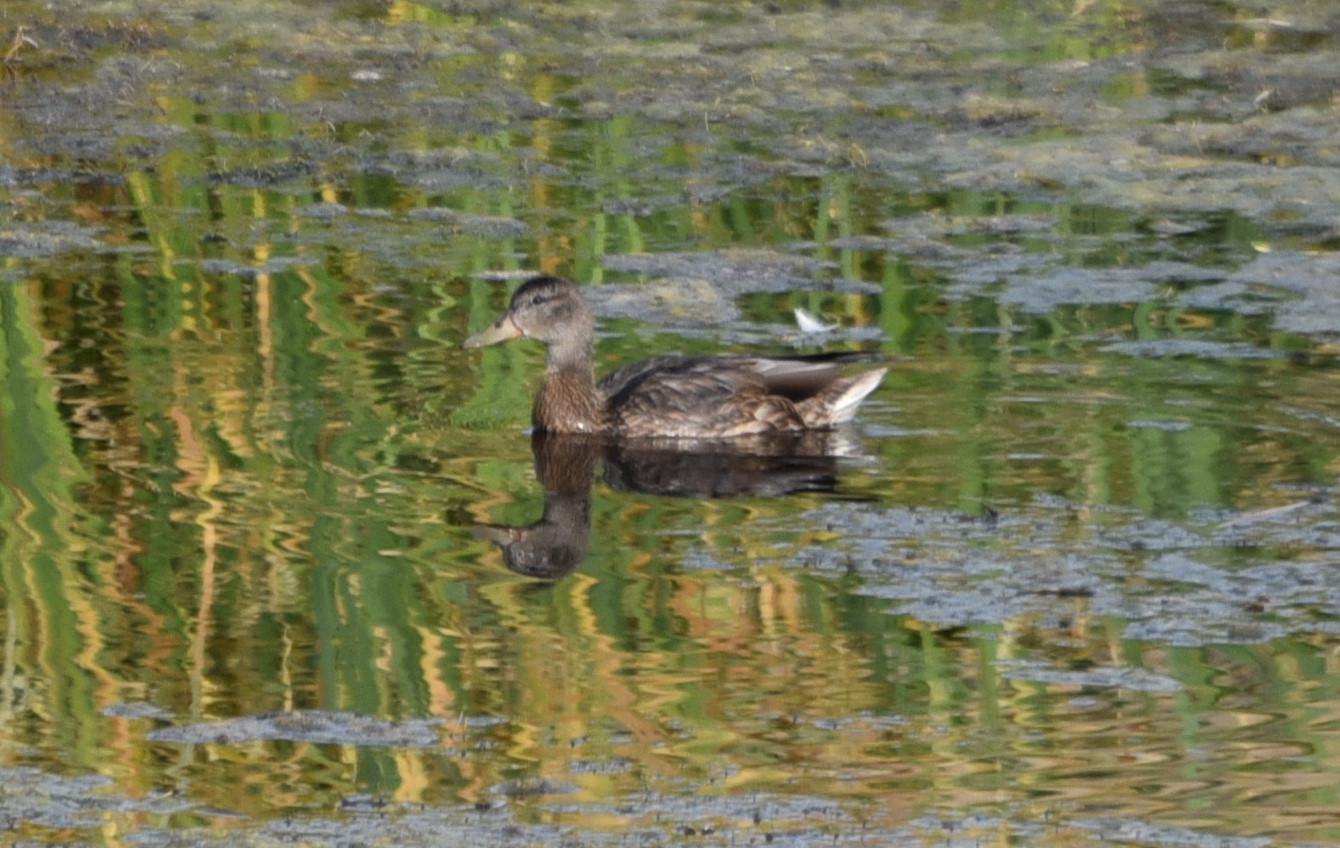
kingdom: Animalia
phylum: Chordata
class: Aves
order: Anseriformes
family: Anatidae
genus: Anas
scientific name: Anas platyrhynchos
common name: Mallard
